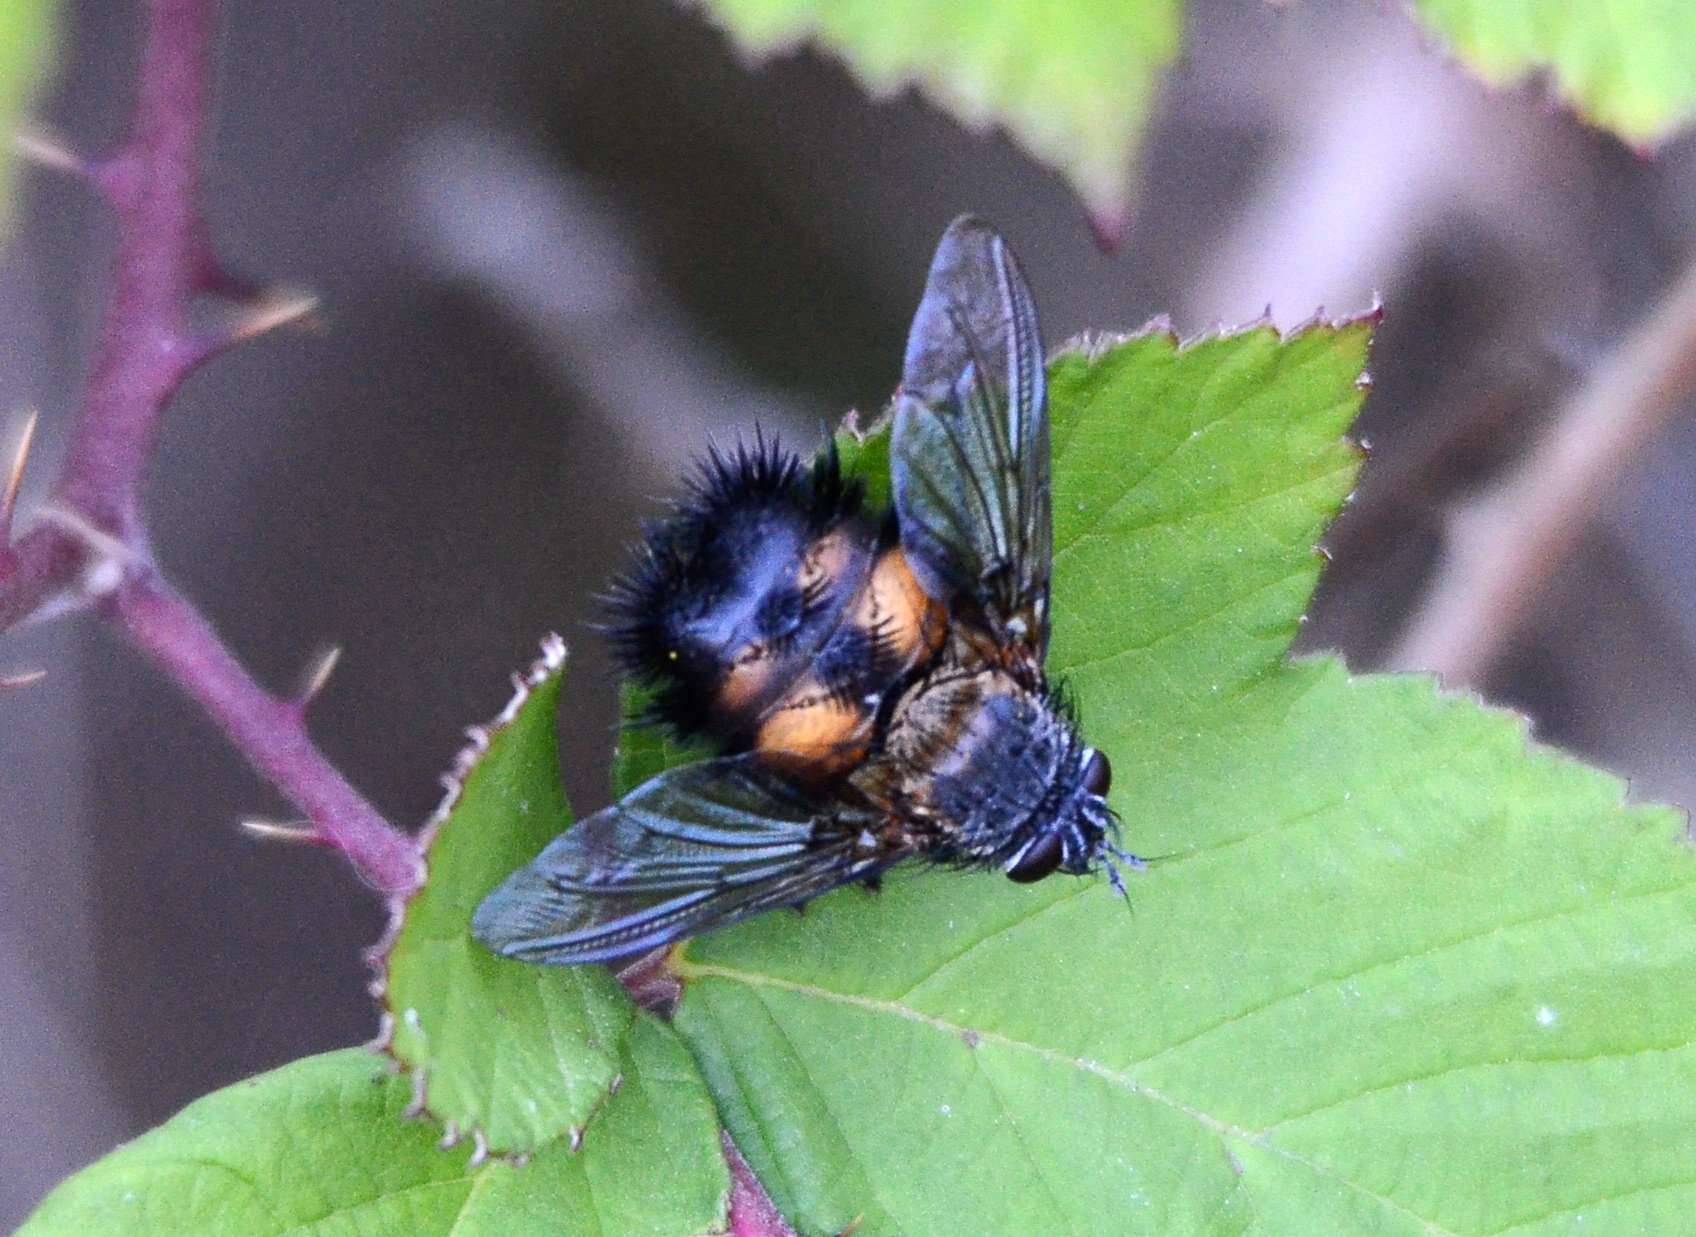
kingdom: Animalia
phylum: Arthropoda
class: Insecta
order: Diptera
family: Tachinidae
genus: Paradejeania
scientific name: Paradejeania rutilioides
